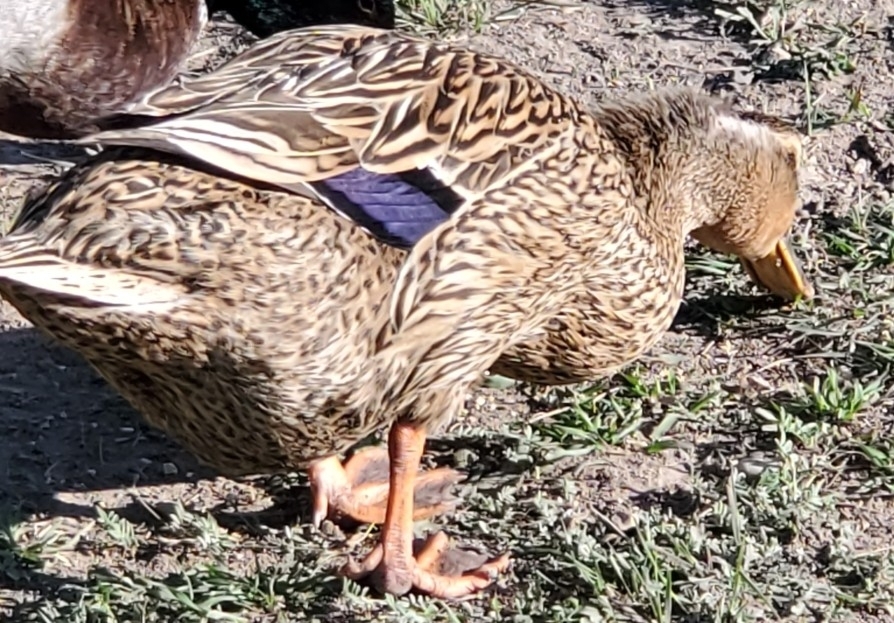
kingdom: Animalia
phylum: Chordata
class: Aves
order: Anseriformes
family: Anatidae
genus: Anas
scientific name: Anas platyrhynchos
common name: Mallard
